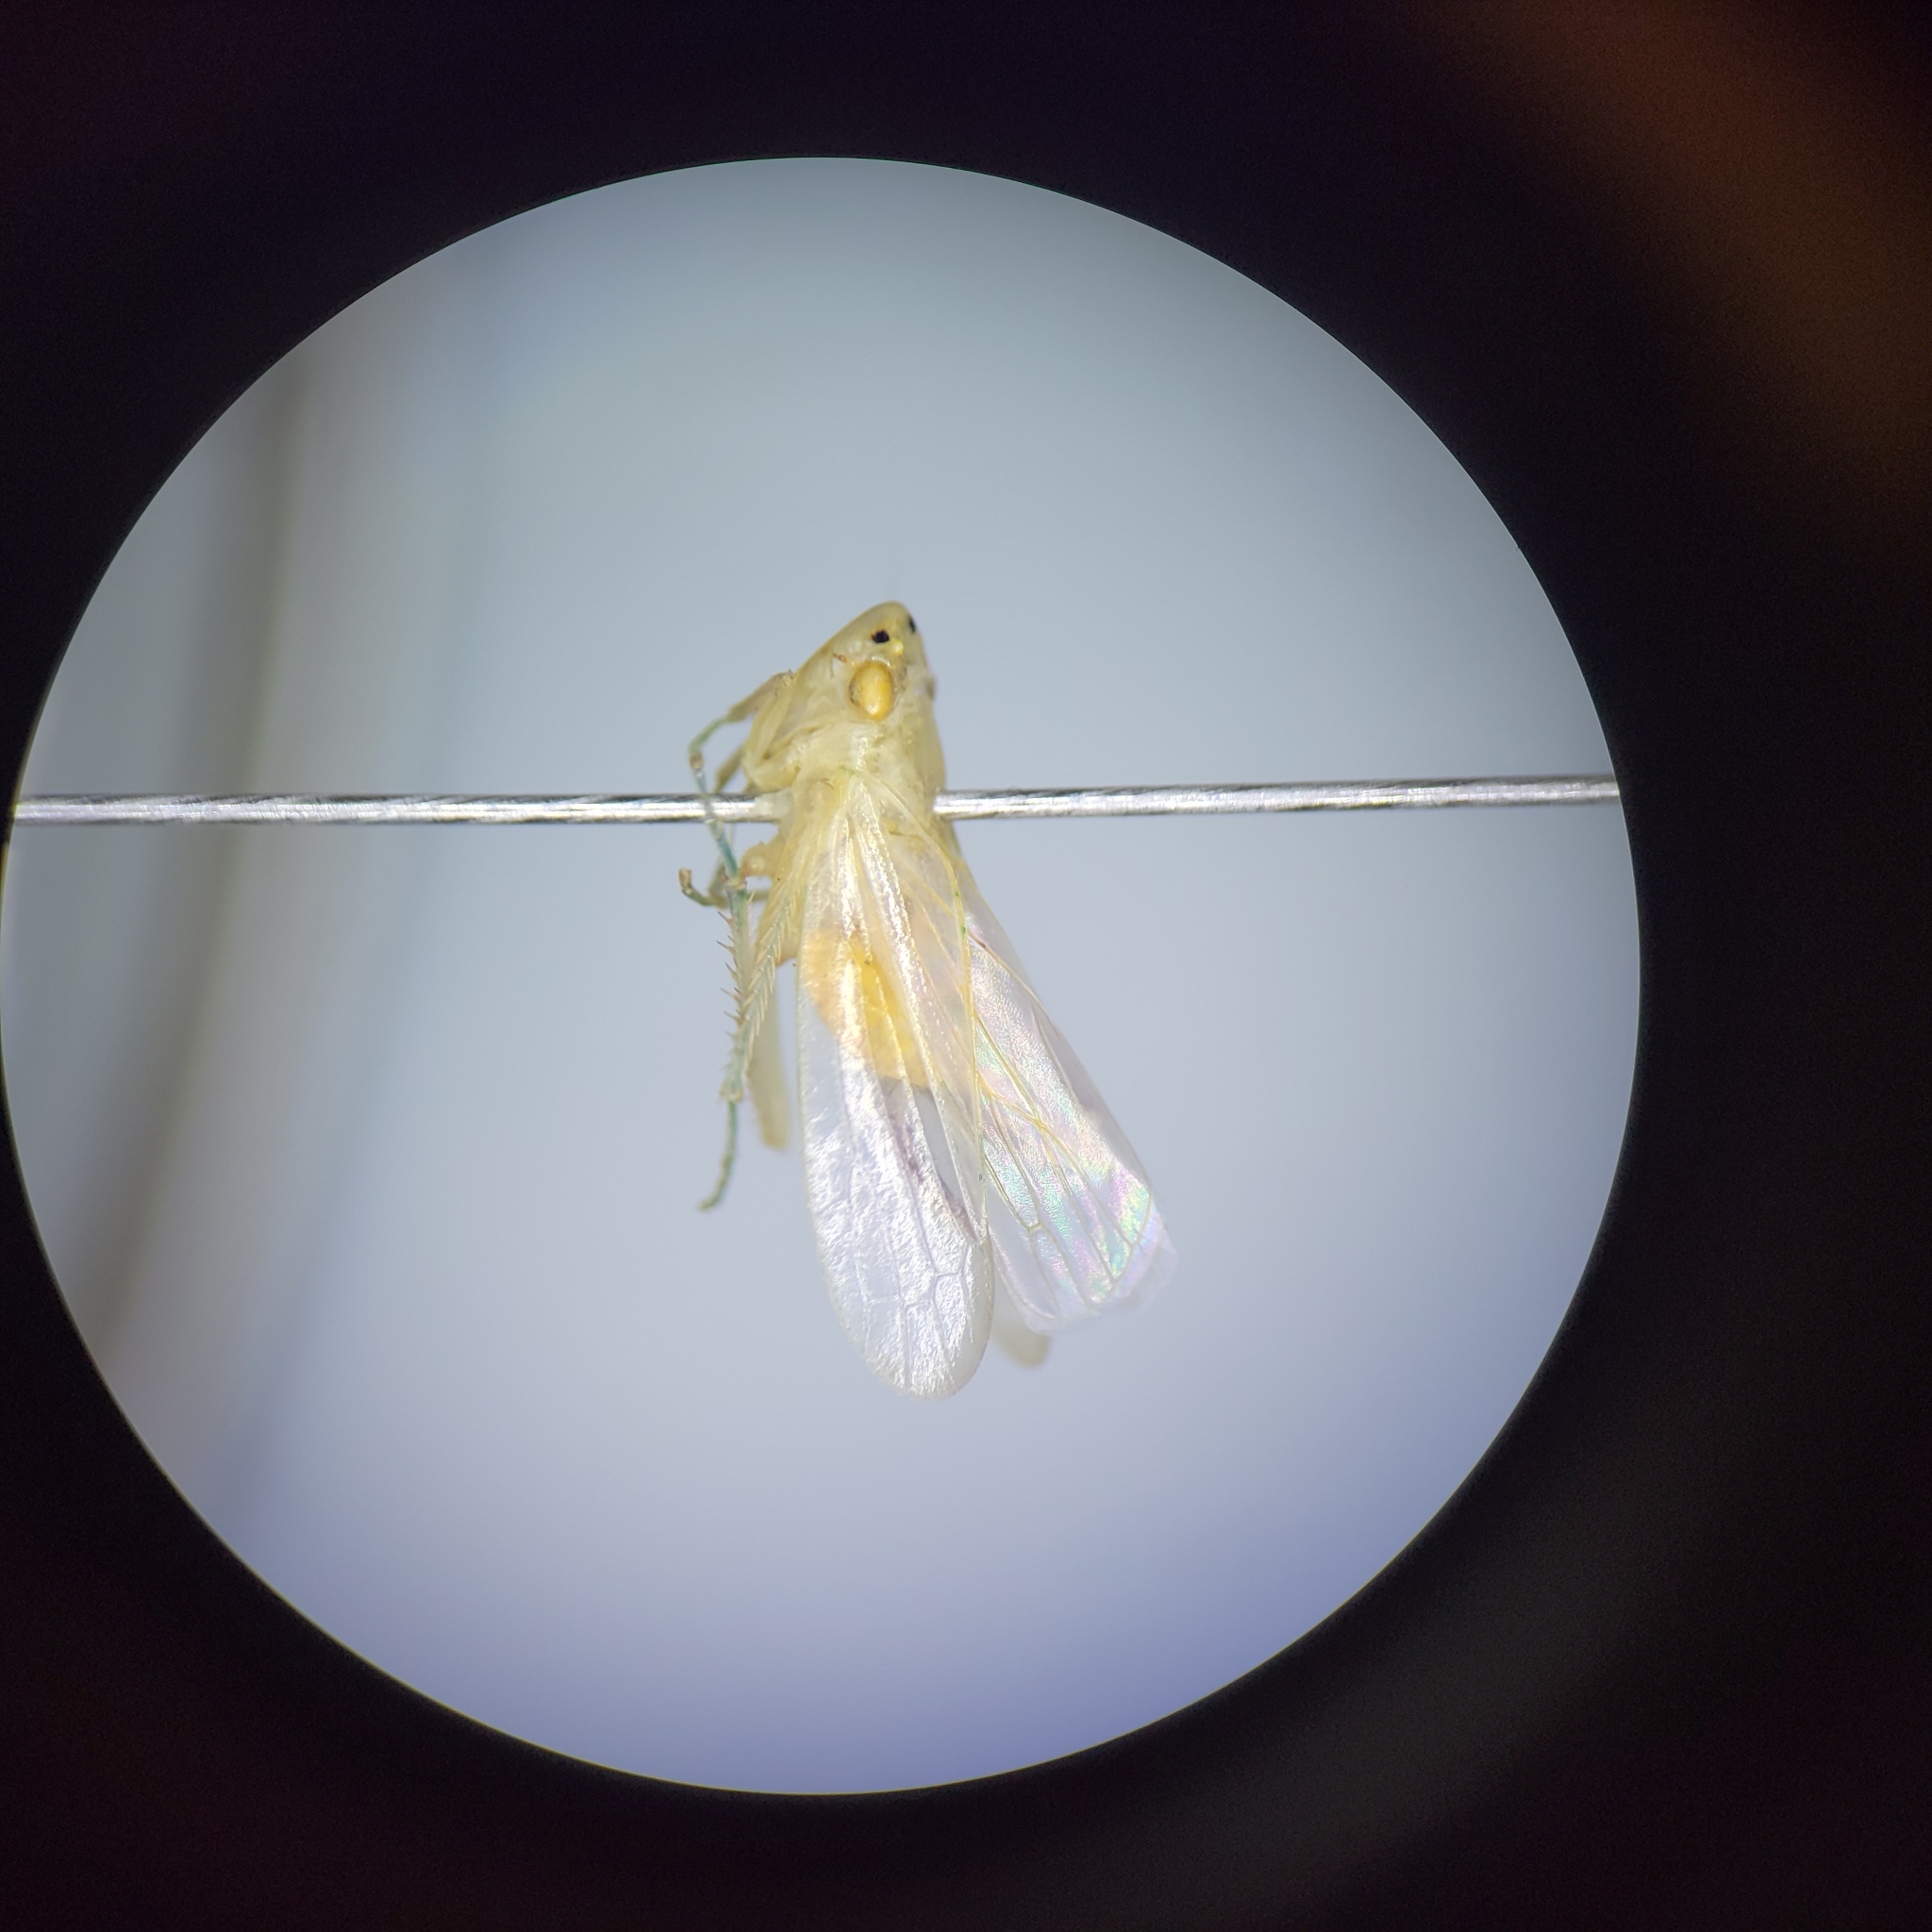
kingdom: Animalia
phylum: Arthropoda
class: Insecta
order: Hemiptera
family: Cicadellidae
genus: Pagaronia
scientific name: Pagaronia minor
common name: Leafhopper
